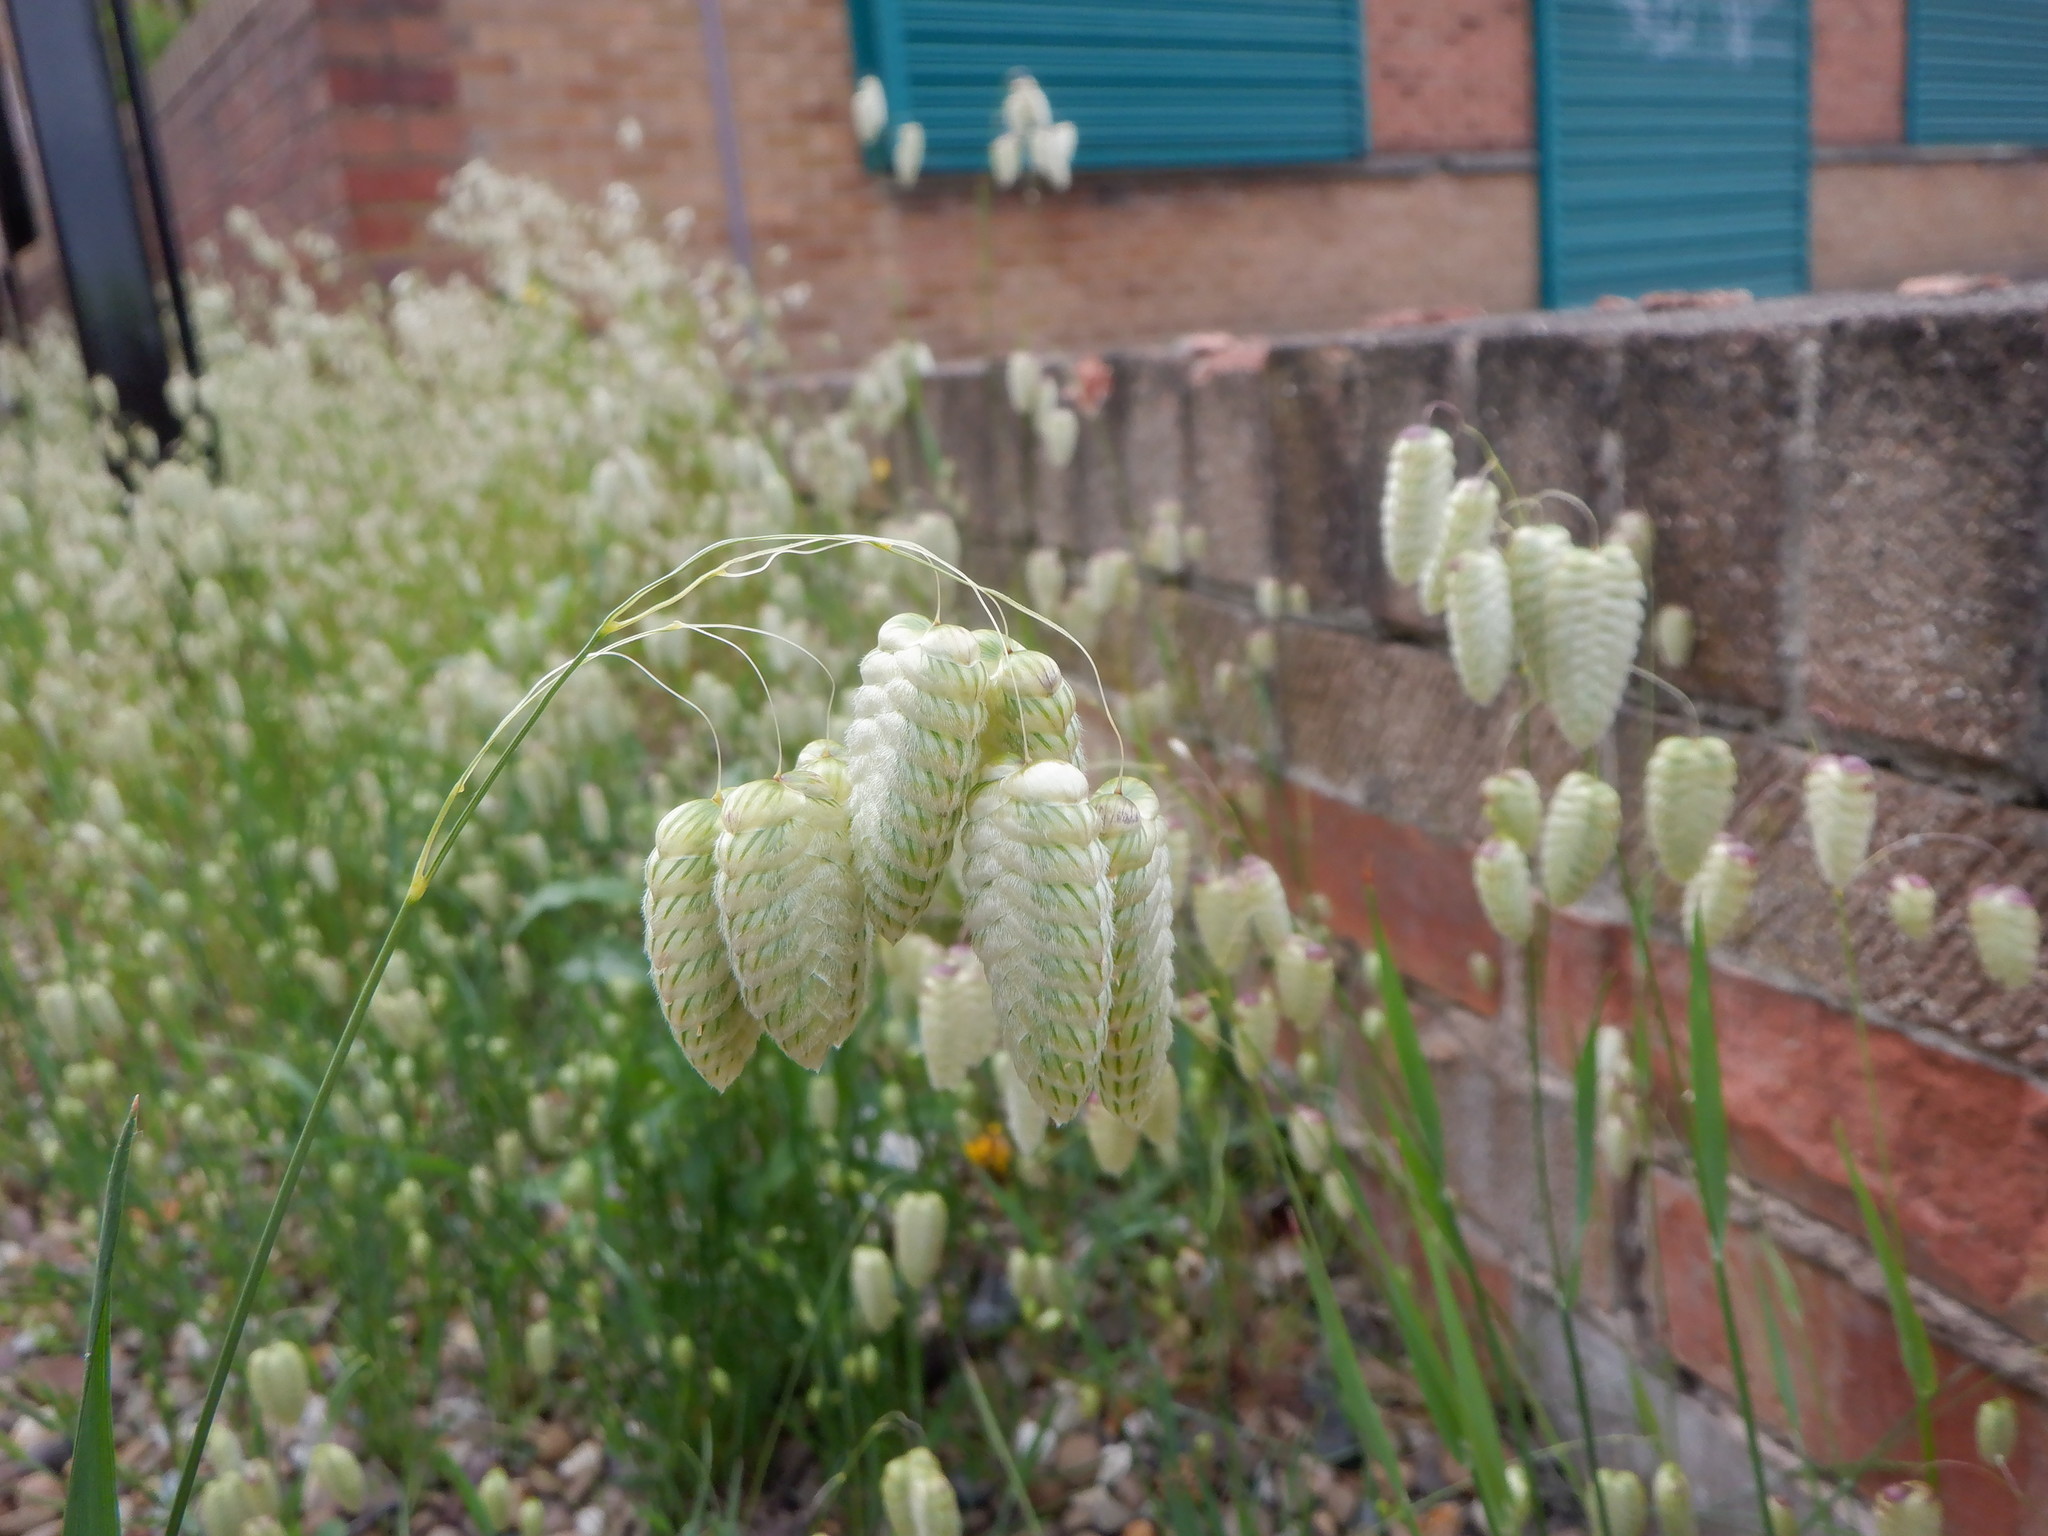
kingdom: Plantae
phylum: Tracheophyta
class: Liliopsida
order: Poales
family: Poaceae
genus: Briza
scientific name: Briza maxima
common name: Big quakinggrass
